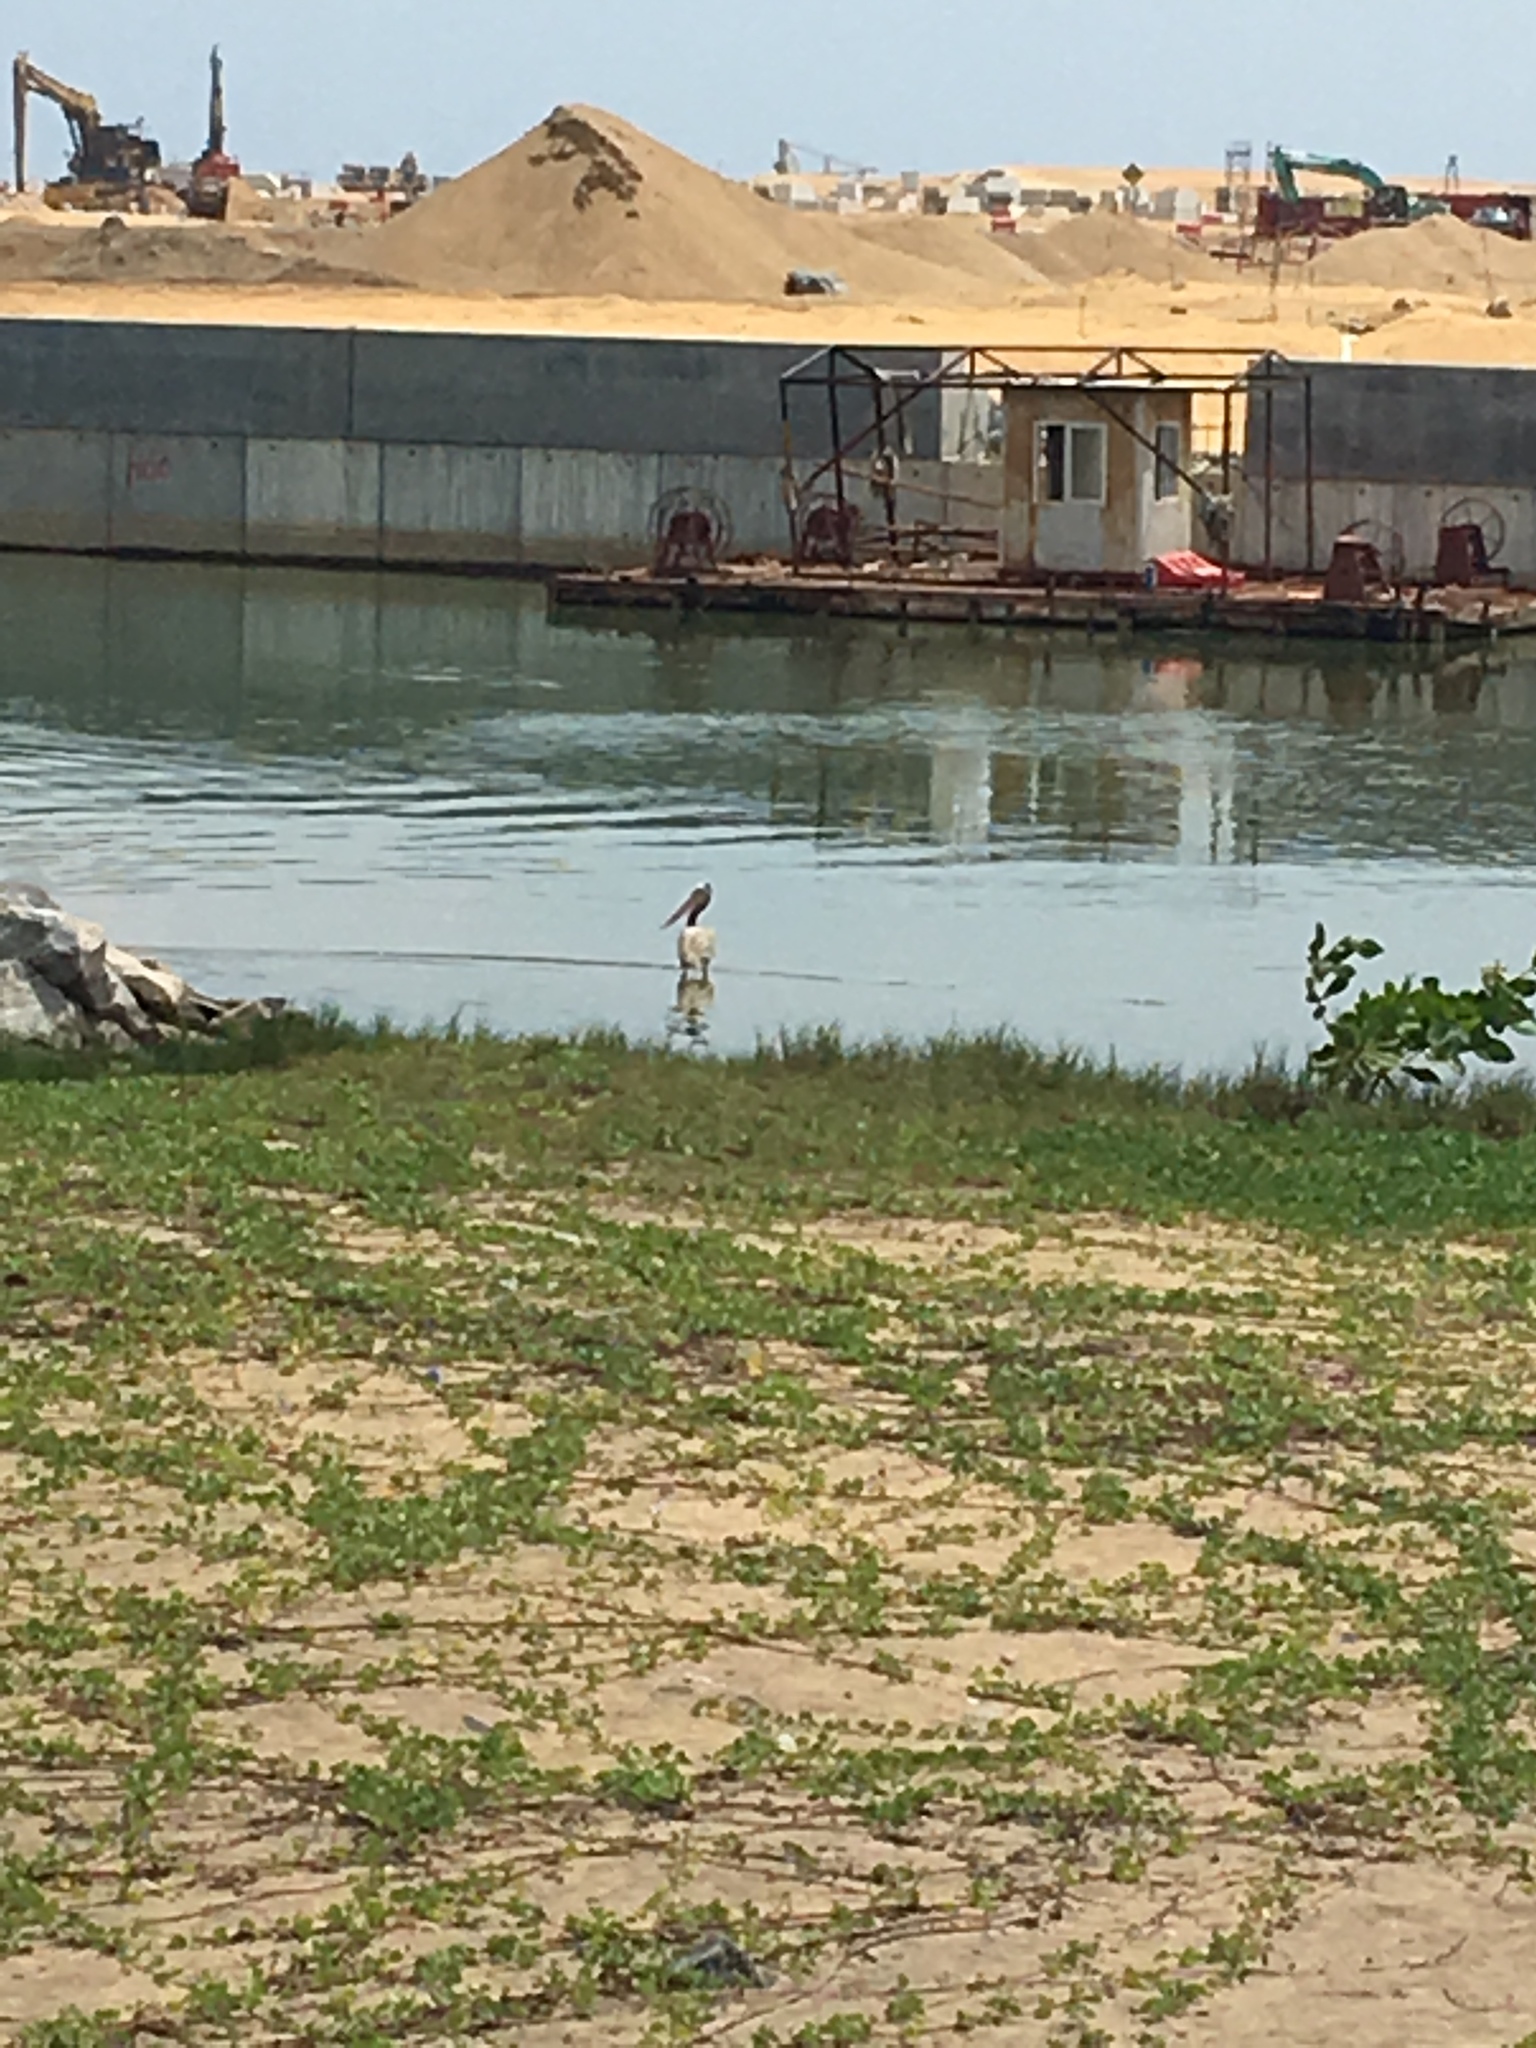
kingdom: Animalia
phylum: Chordata
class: Aves
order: Pelecaniformes
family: Pelecanidae
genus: Pelecanus
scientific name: Pelecanus philippensis
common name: Spot-billed pelican
